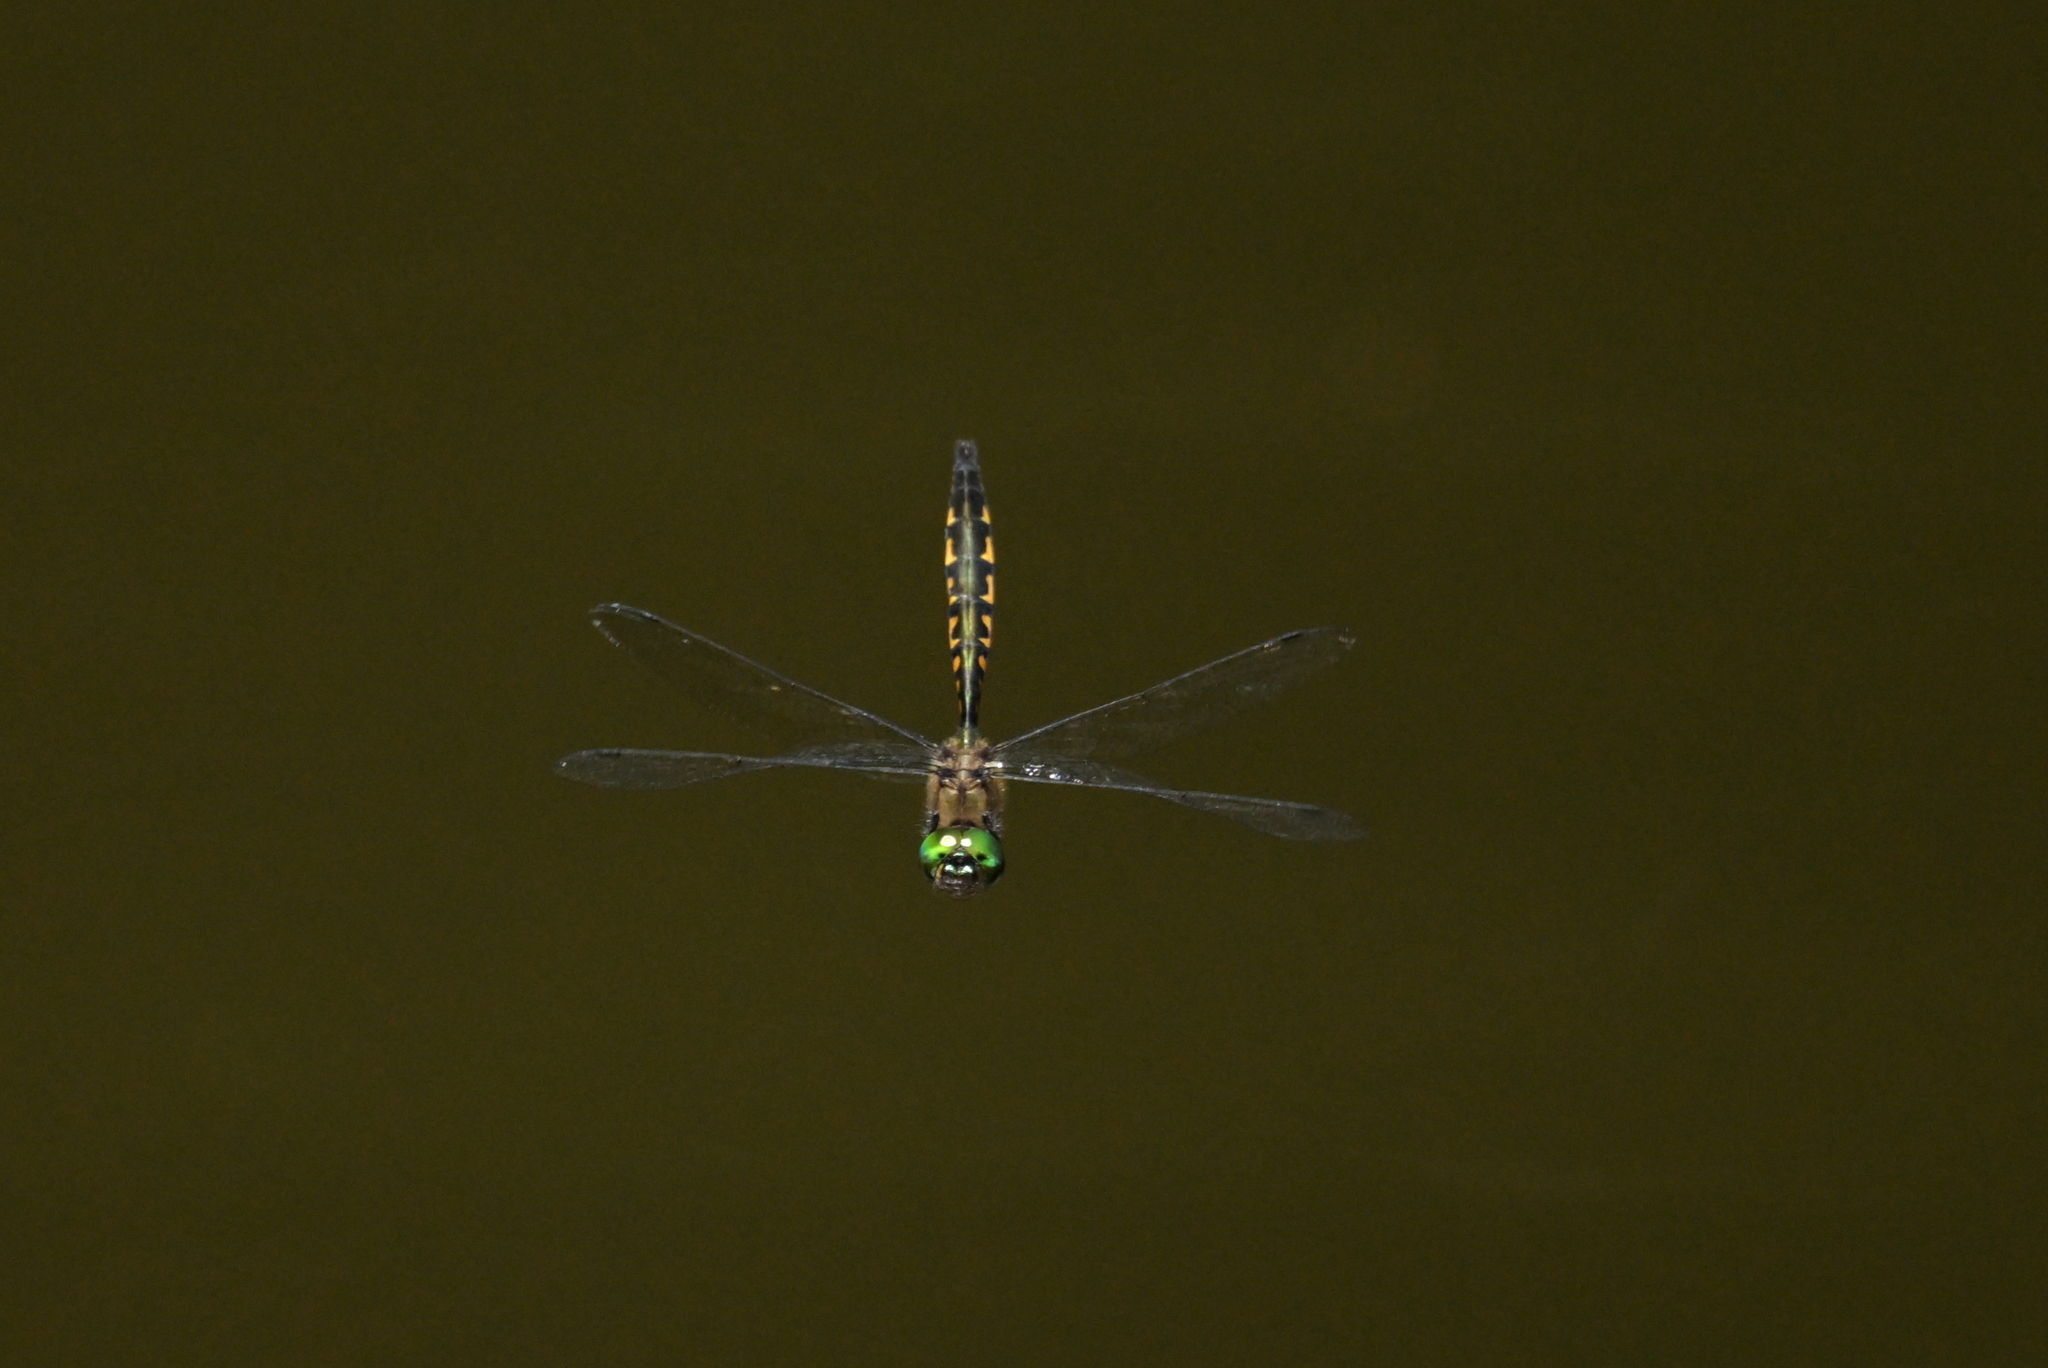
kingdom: Animalia
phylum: Arthropoda
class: Insecta
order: Odonata
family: Corduliidae
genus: Hemicordulia
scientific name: Hemicordulia armstrongi
